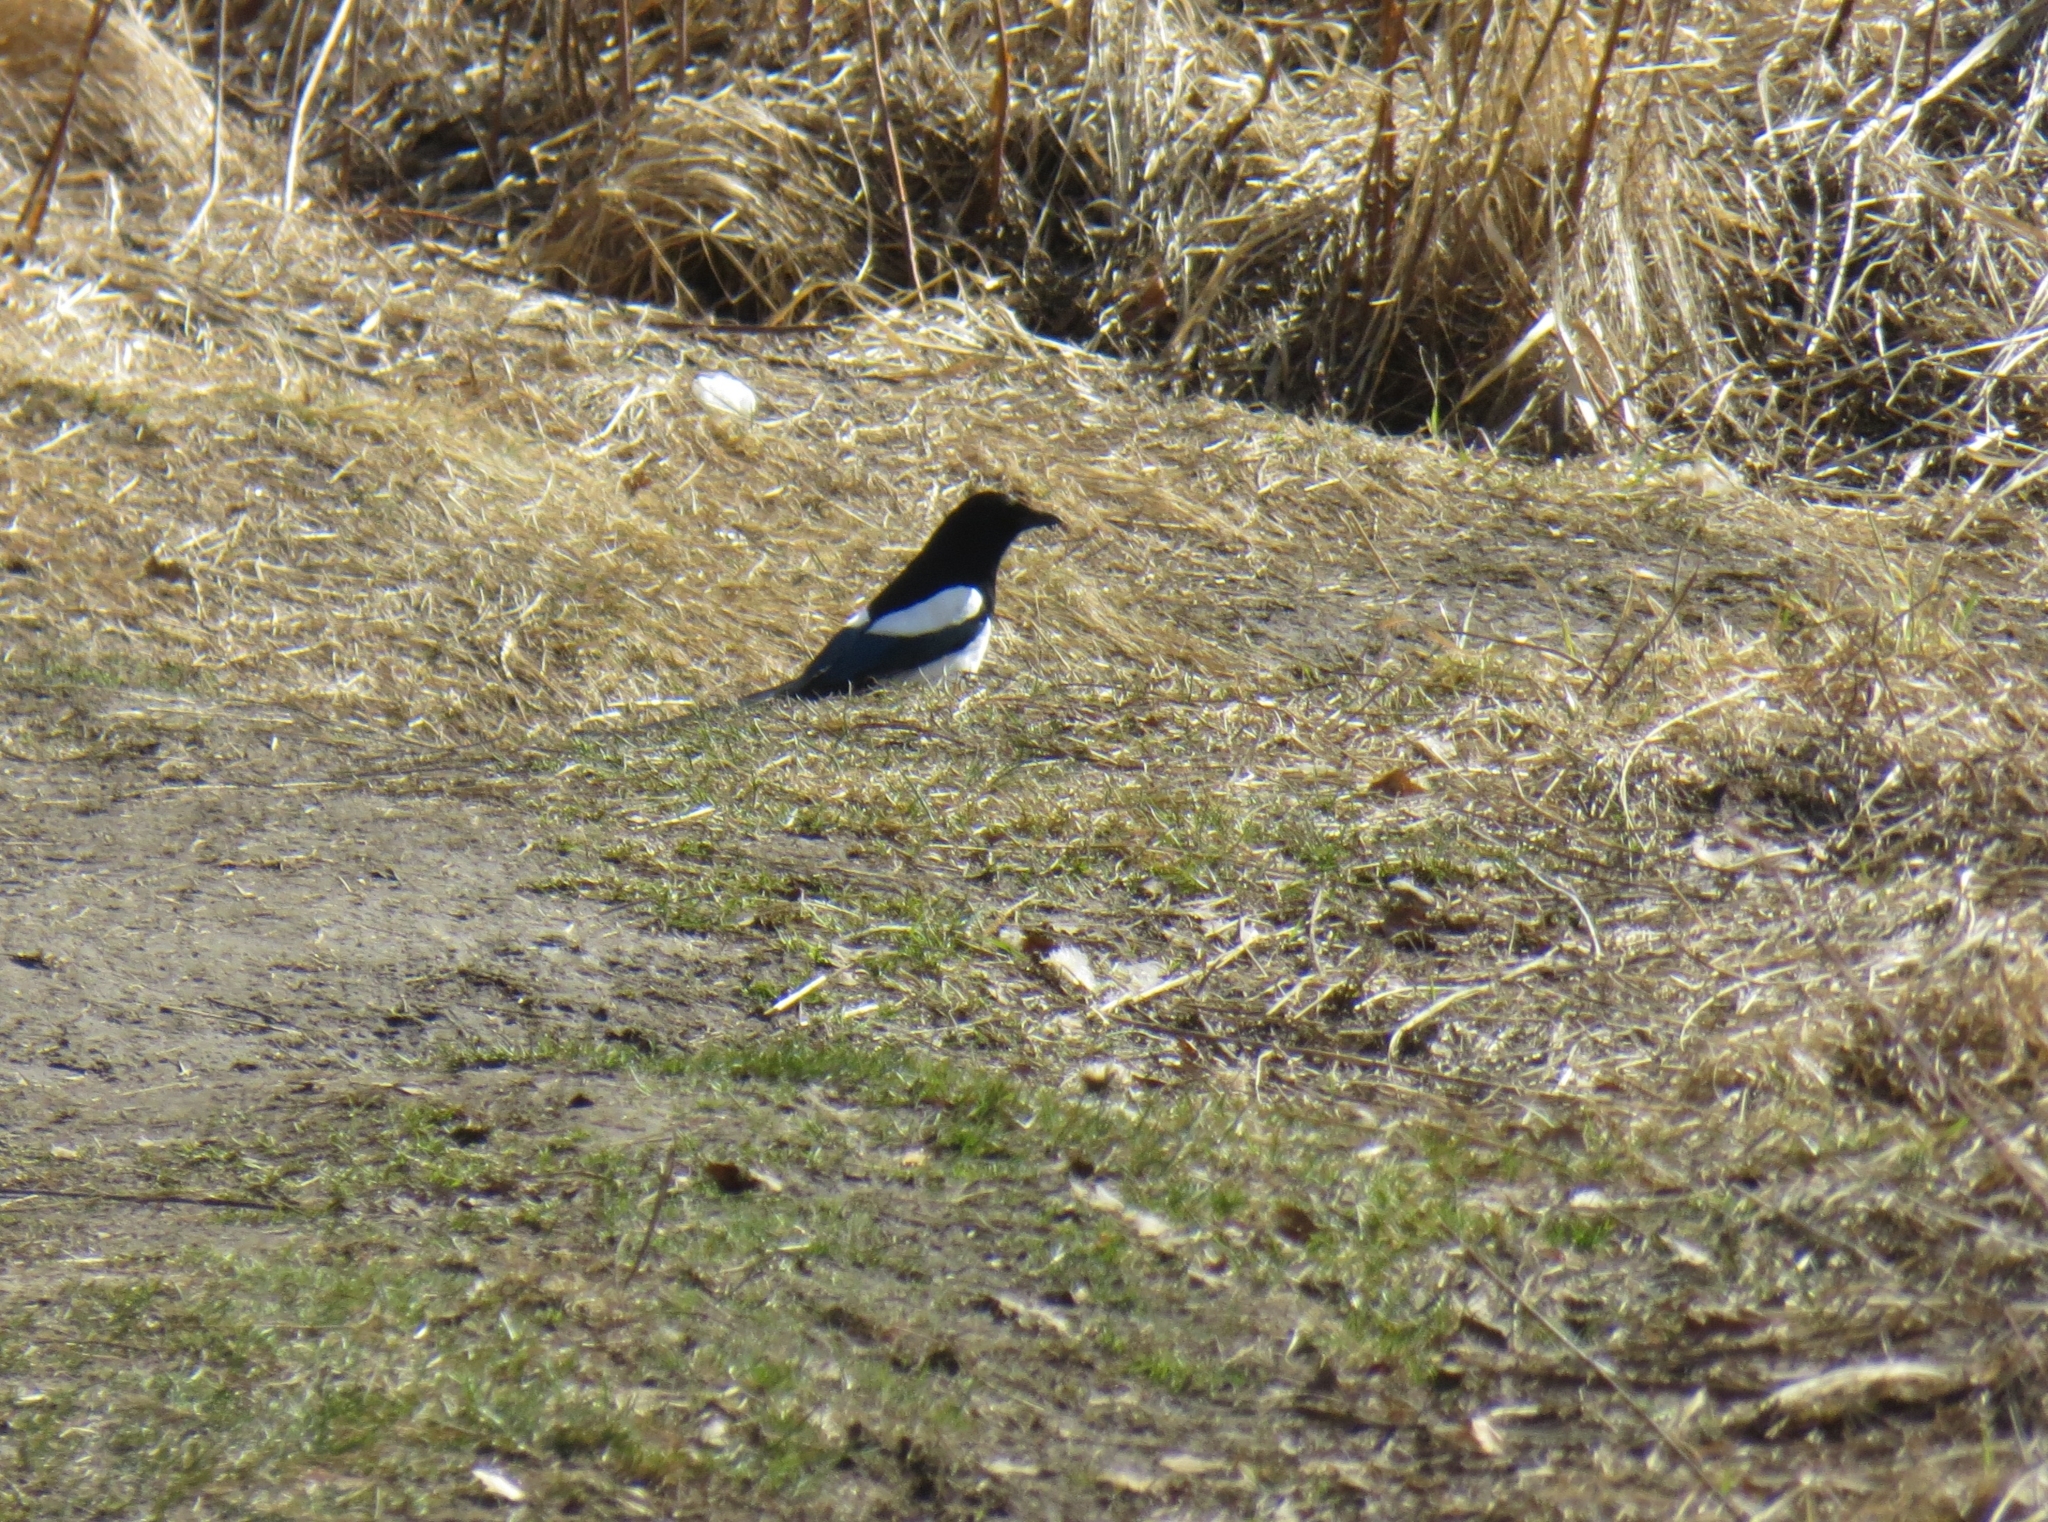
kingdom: Animalia
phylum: Chordata
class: Aves
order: Passeriformes
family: Corvidae
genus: Pica
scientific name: Pica pica
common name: Eurasian magpie
